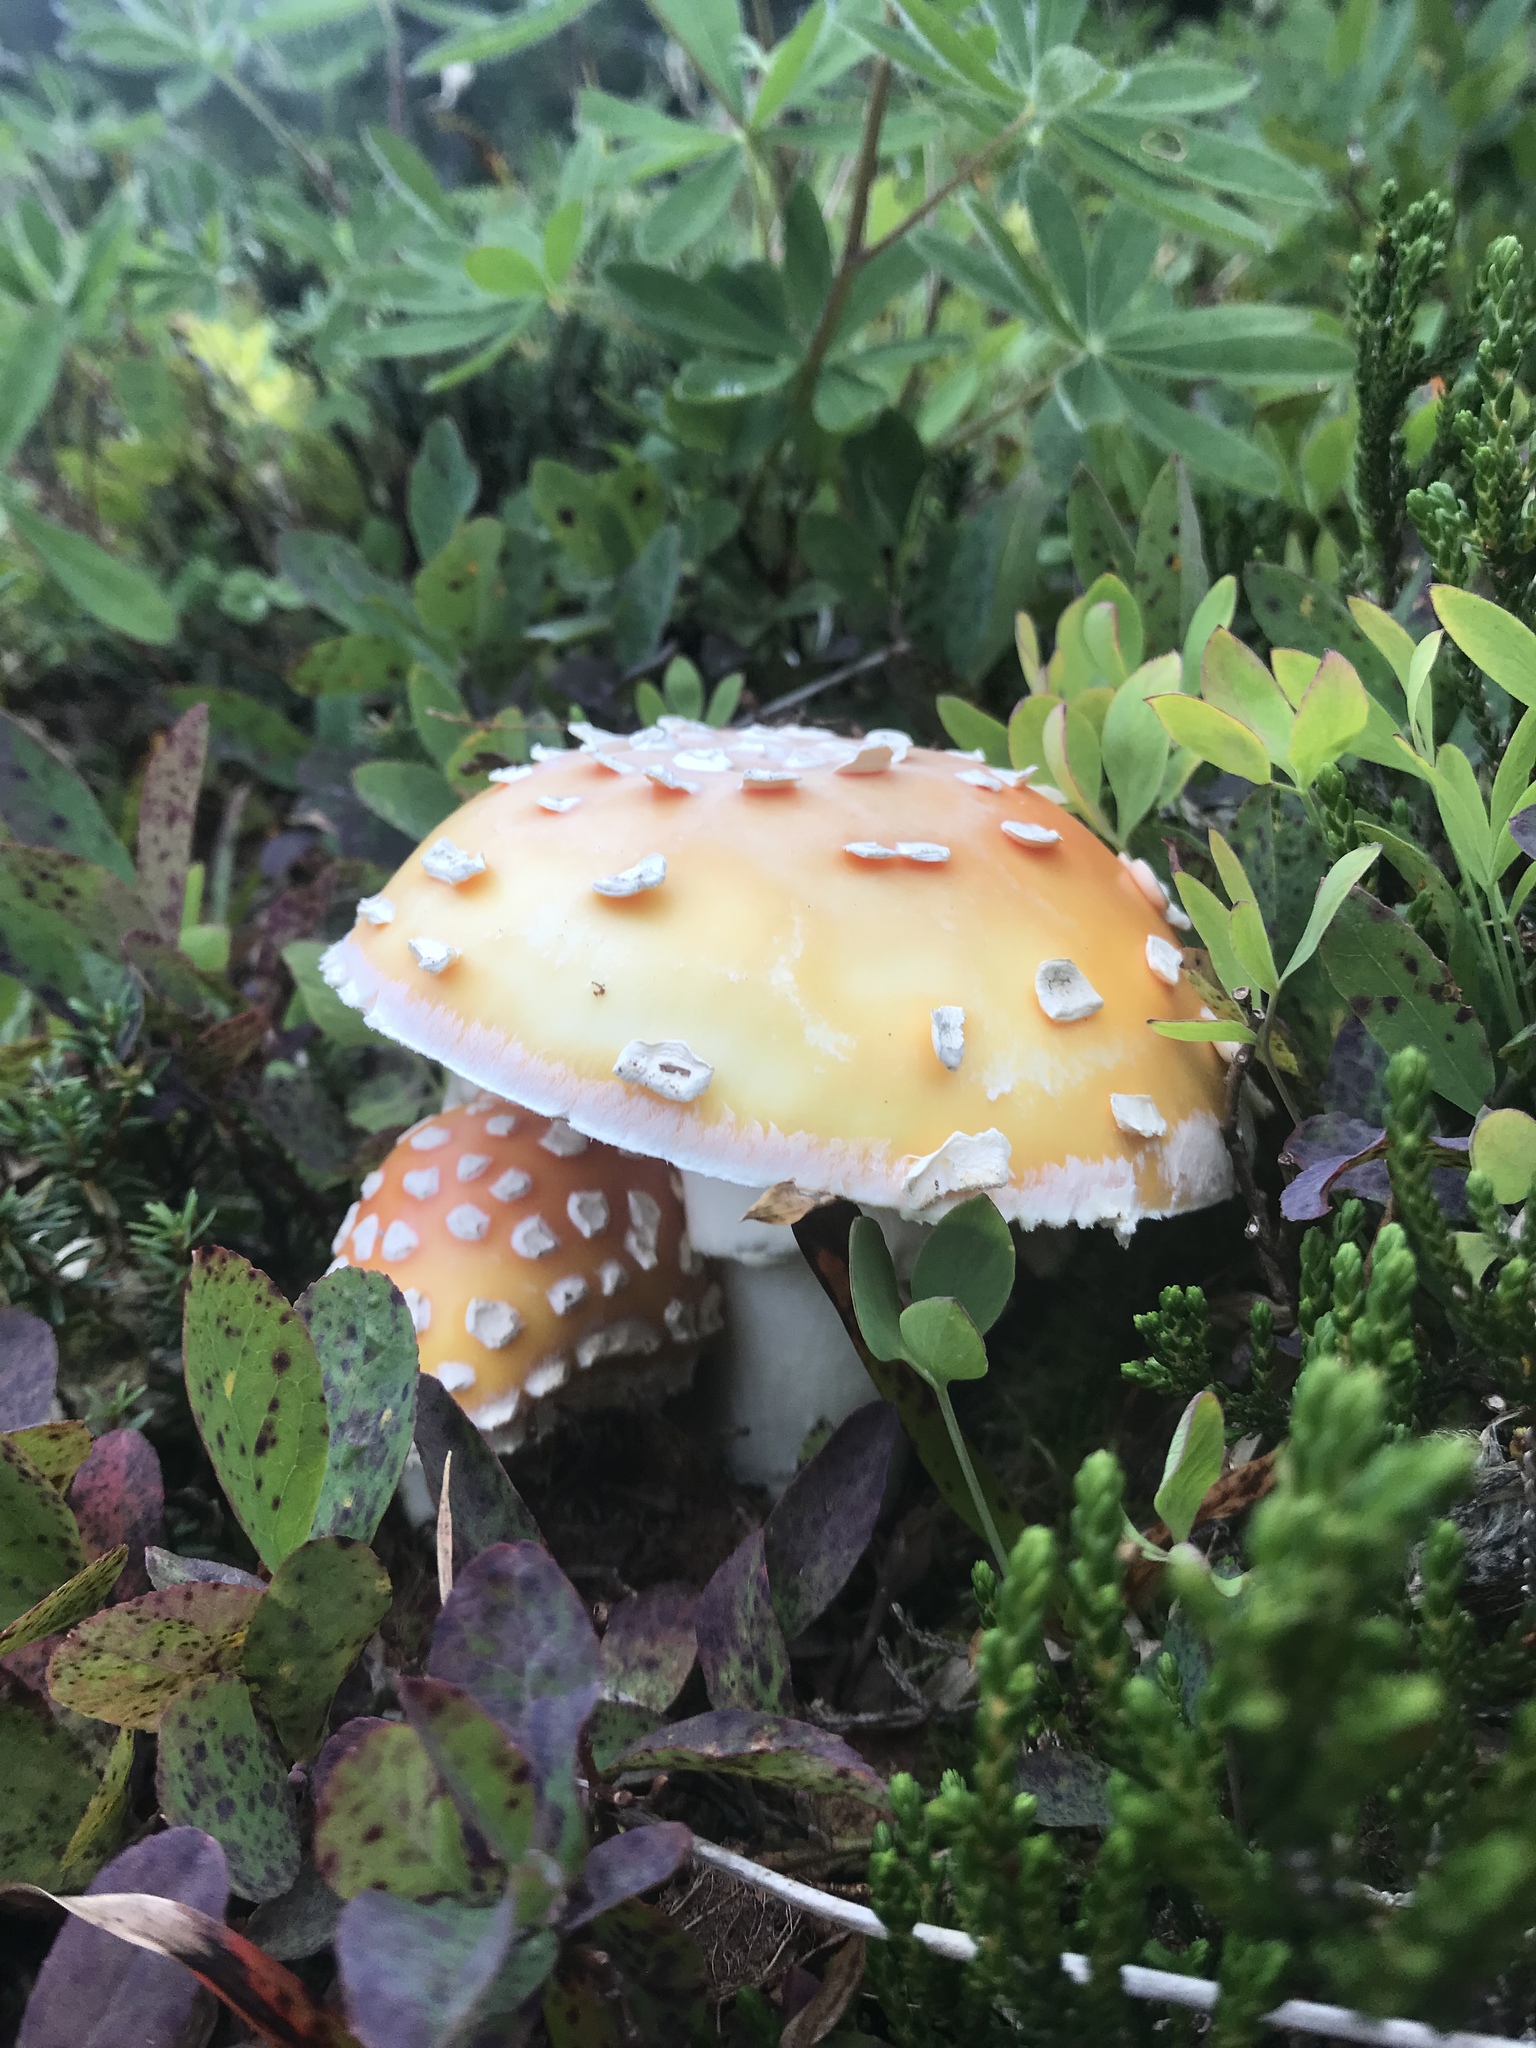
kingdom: Fungi
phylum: Basidiomycota
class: Agaricomycetes
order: Agaricales
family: Amanitaceae
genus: Amanita
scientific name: Amanita muscaria
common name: Fly agaric
